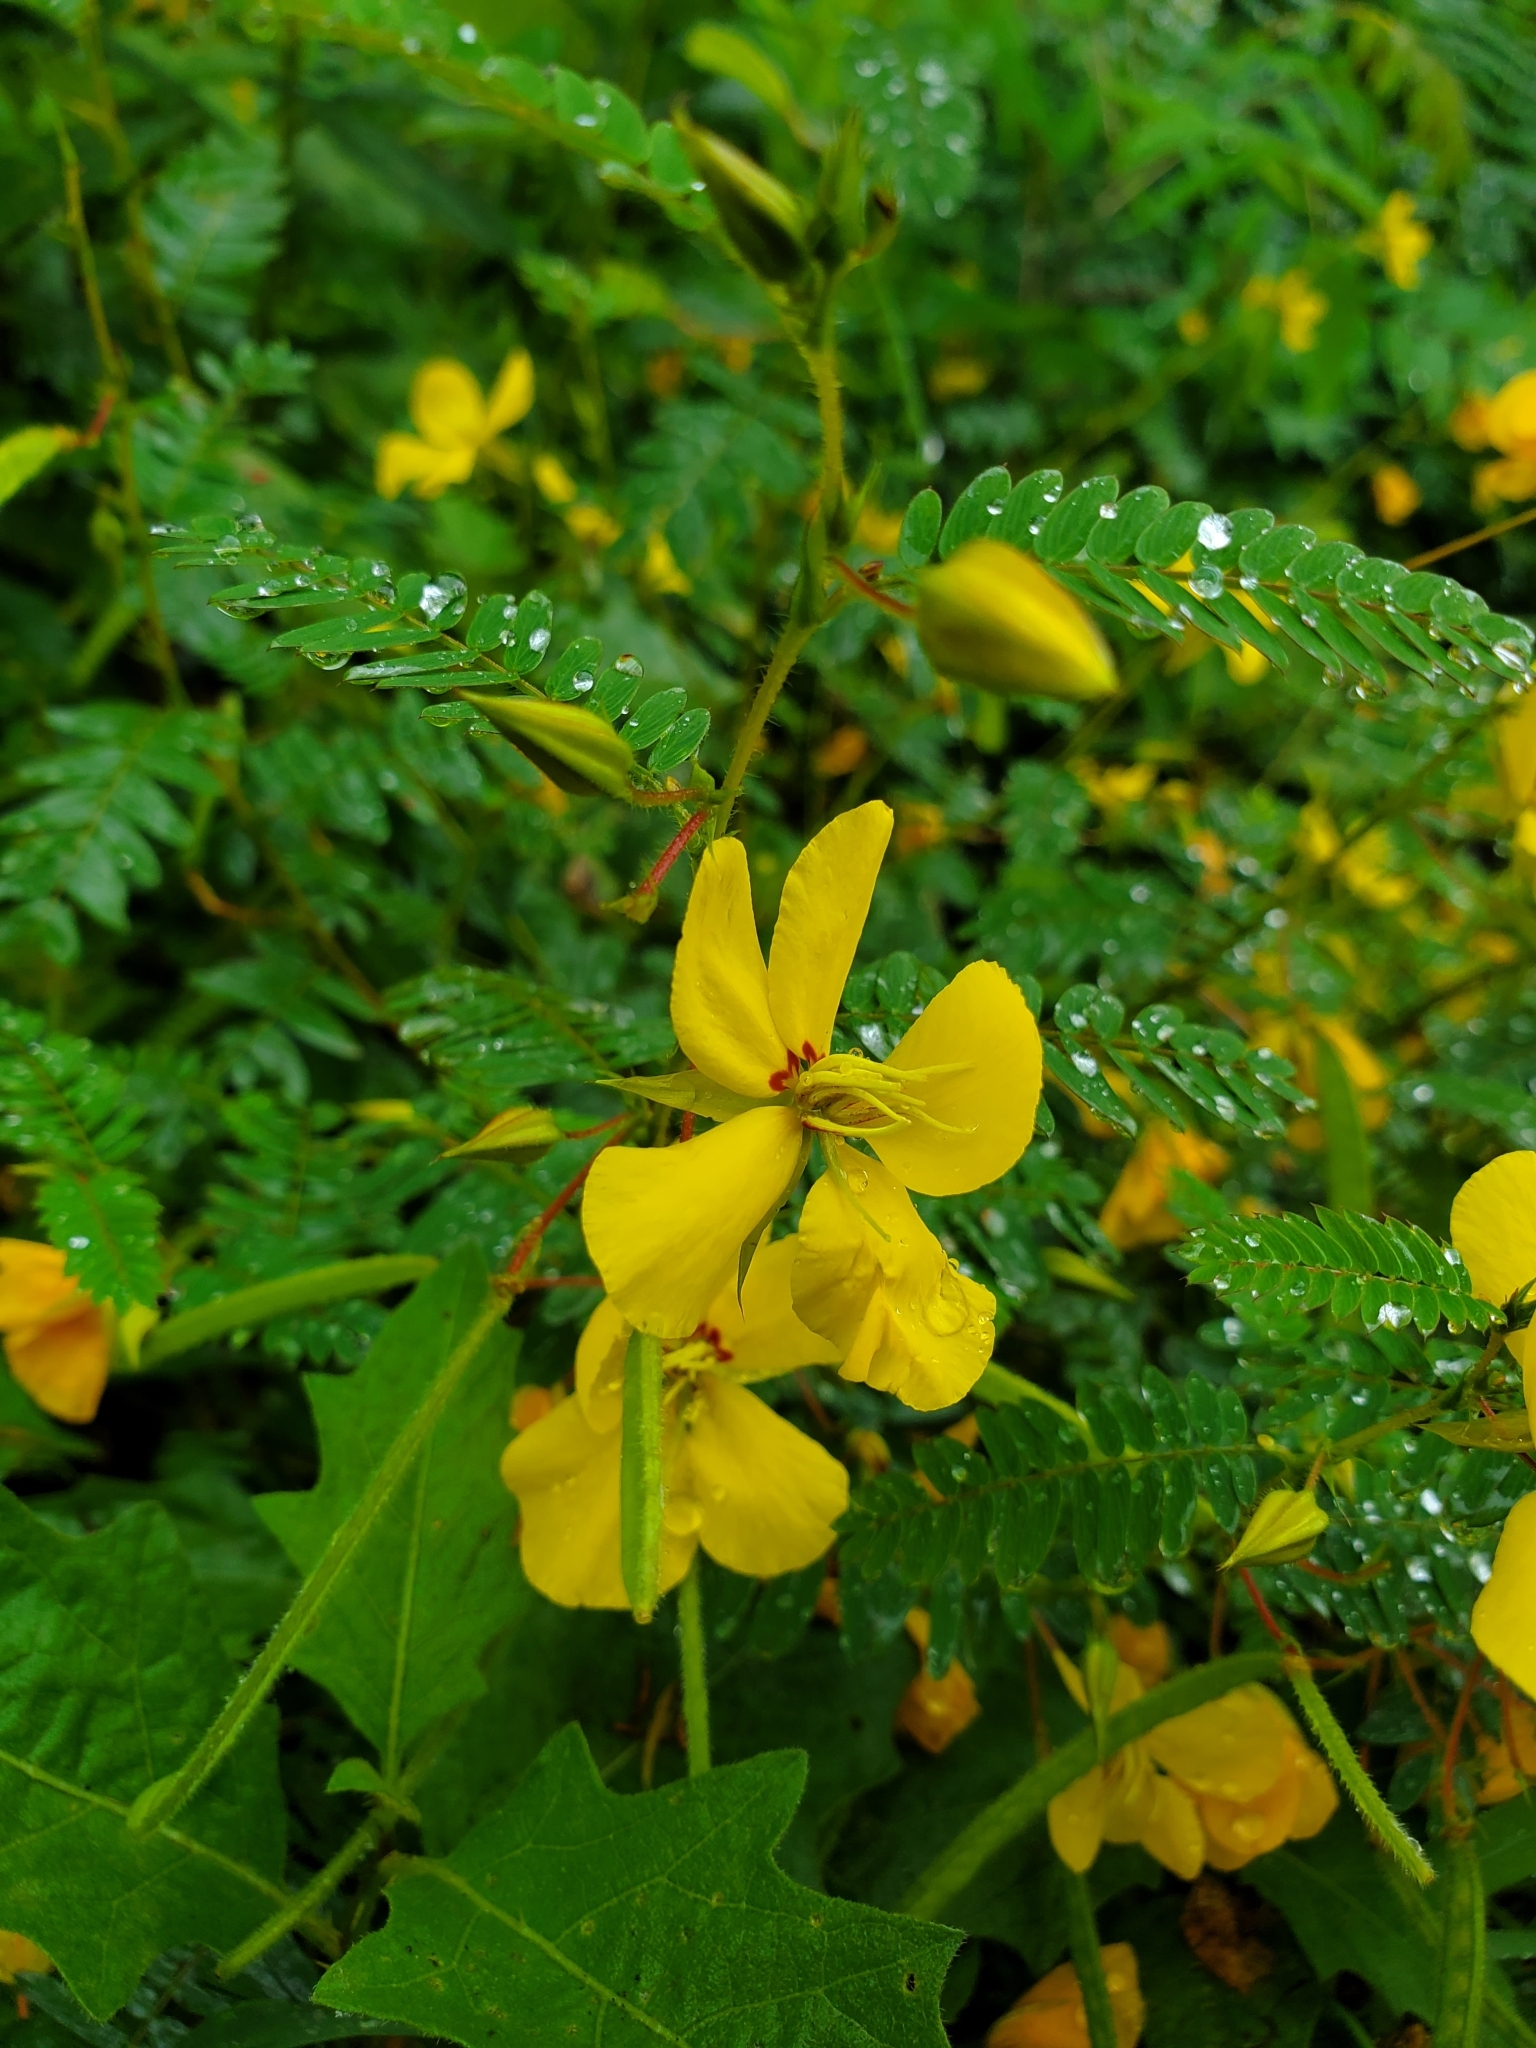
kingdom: Plantae
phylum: Tracheophyta
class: Magnoliopsida
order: Fabales
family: Fabaceae
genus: Chamaecrista
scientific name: Chamaecrista fasciculata
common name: Golden cassia
